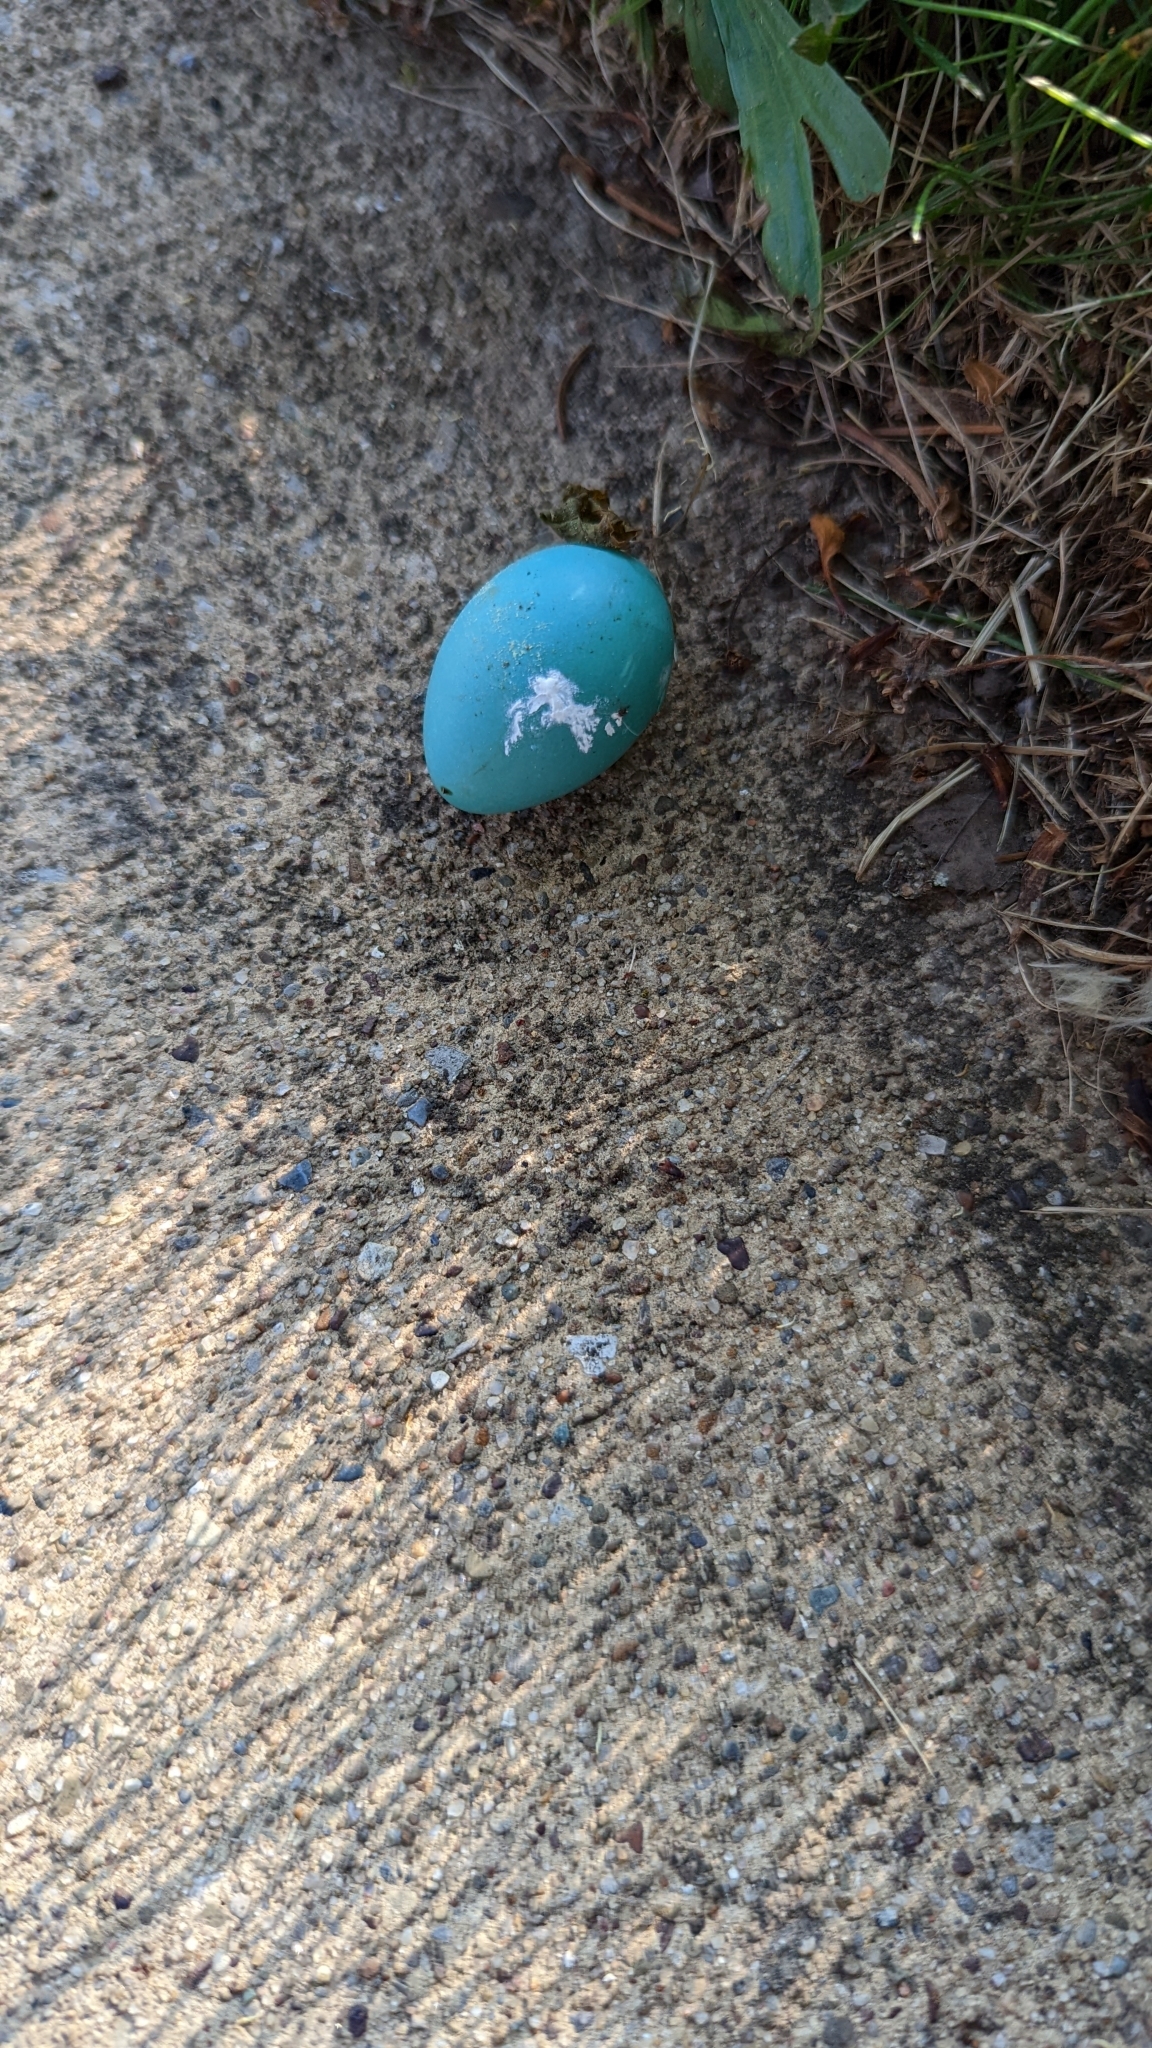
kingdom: Animalia
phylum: Chordata
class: Aves
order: Passeriformes
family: Turdidae
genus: Turdus
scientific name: Turdus migratorius
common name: American robin
